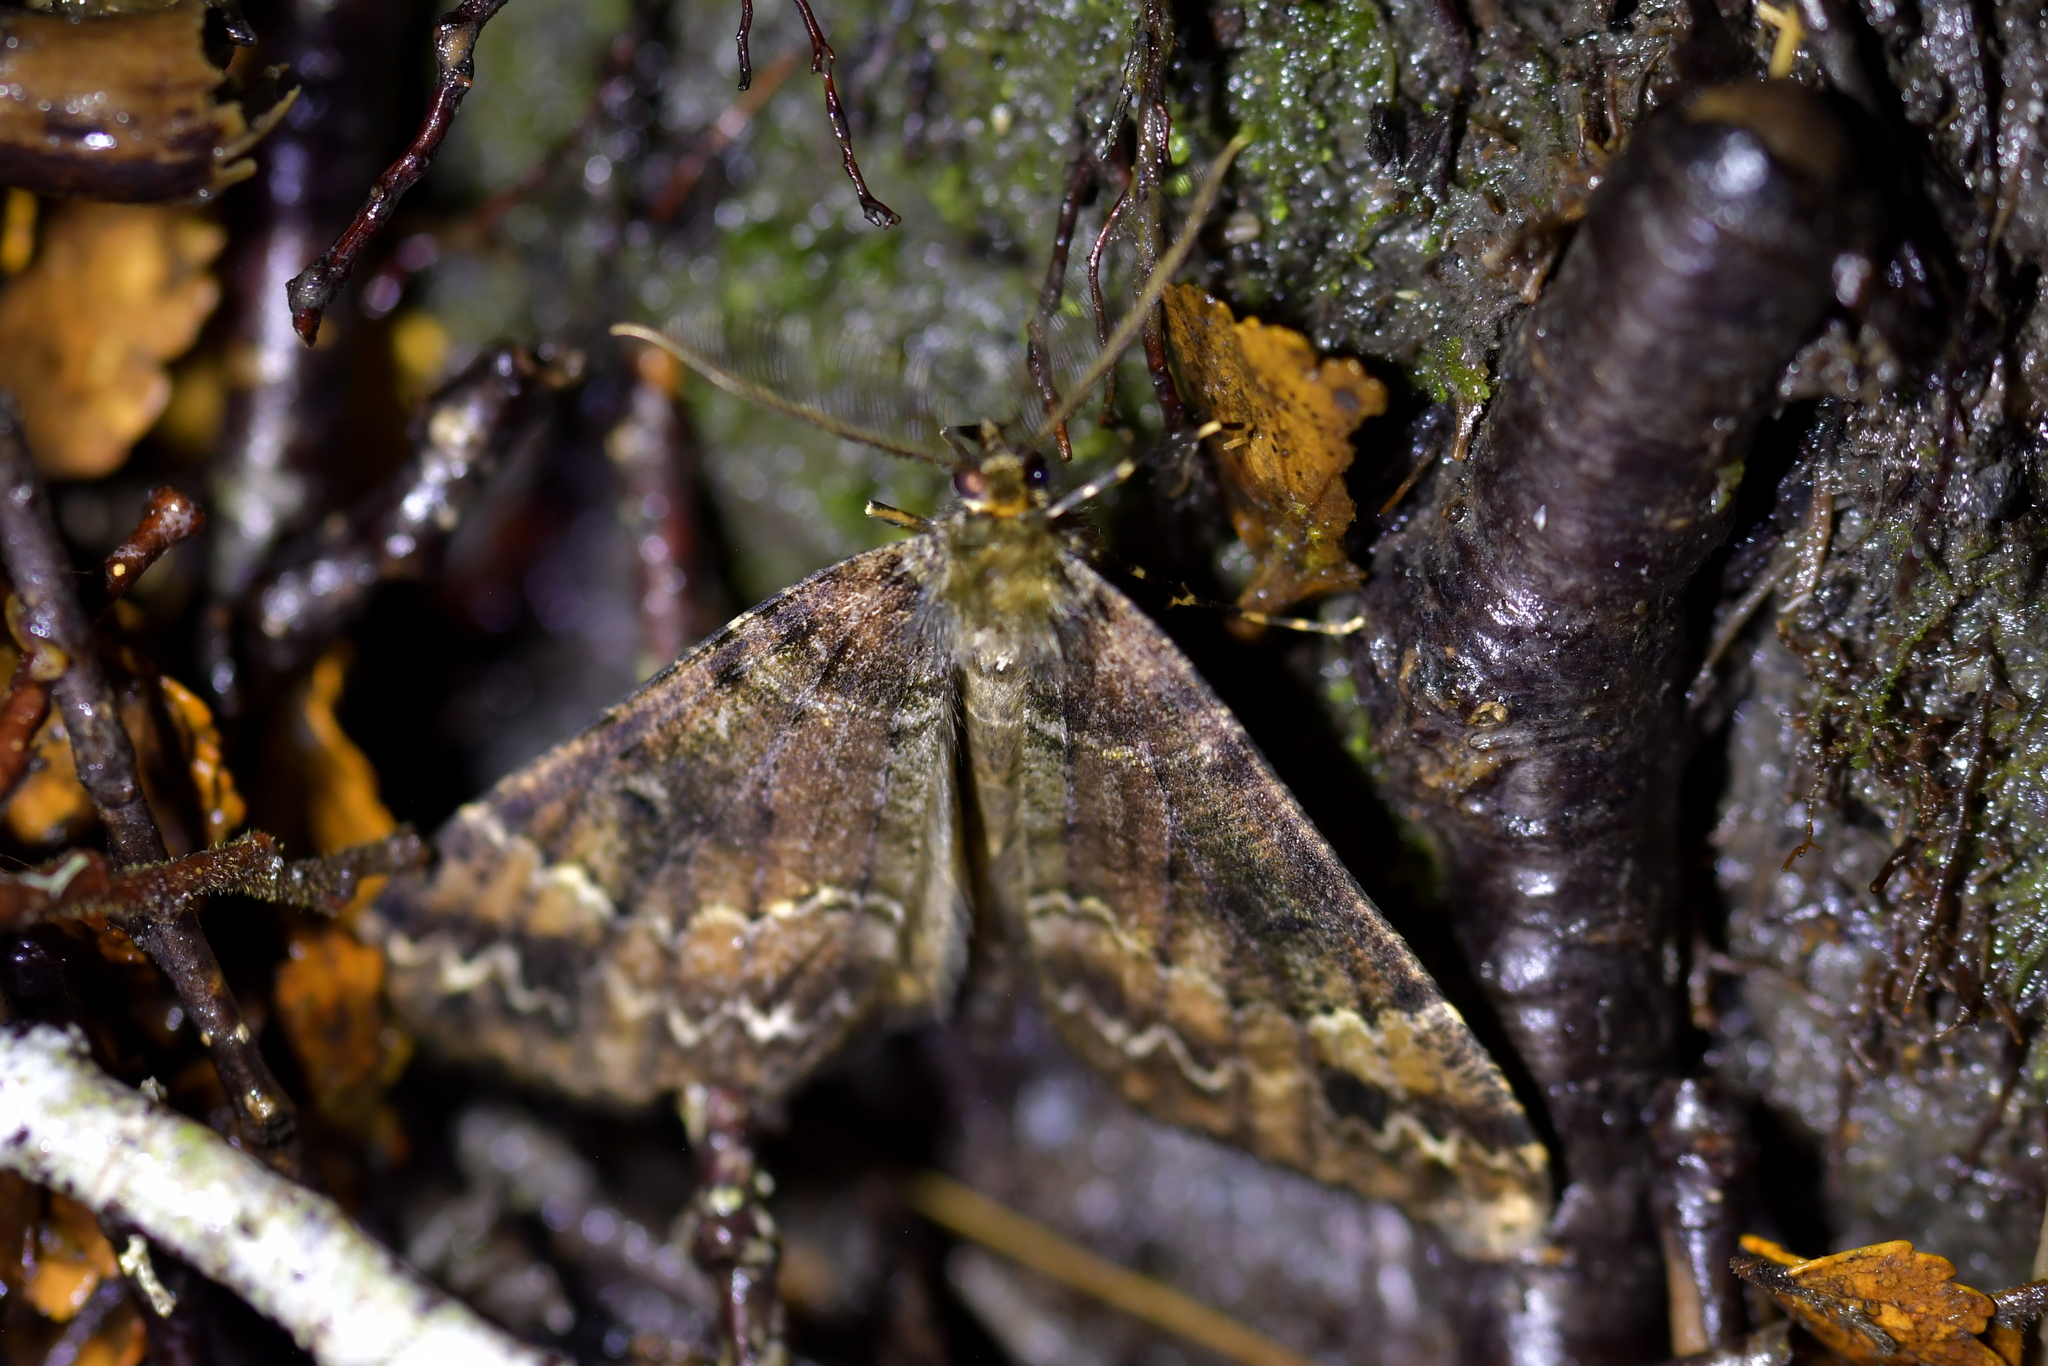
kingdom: Animalia
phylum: Arthropoda
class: Insecta
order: Lepidoptera
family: Geometridae
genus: Pseudocoremia
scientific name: Pseudocoremia productata
